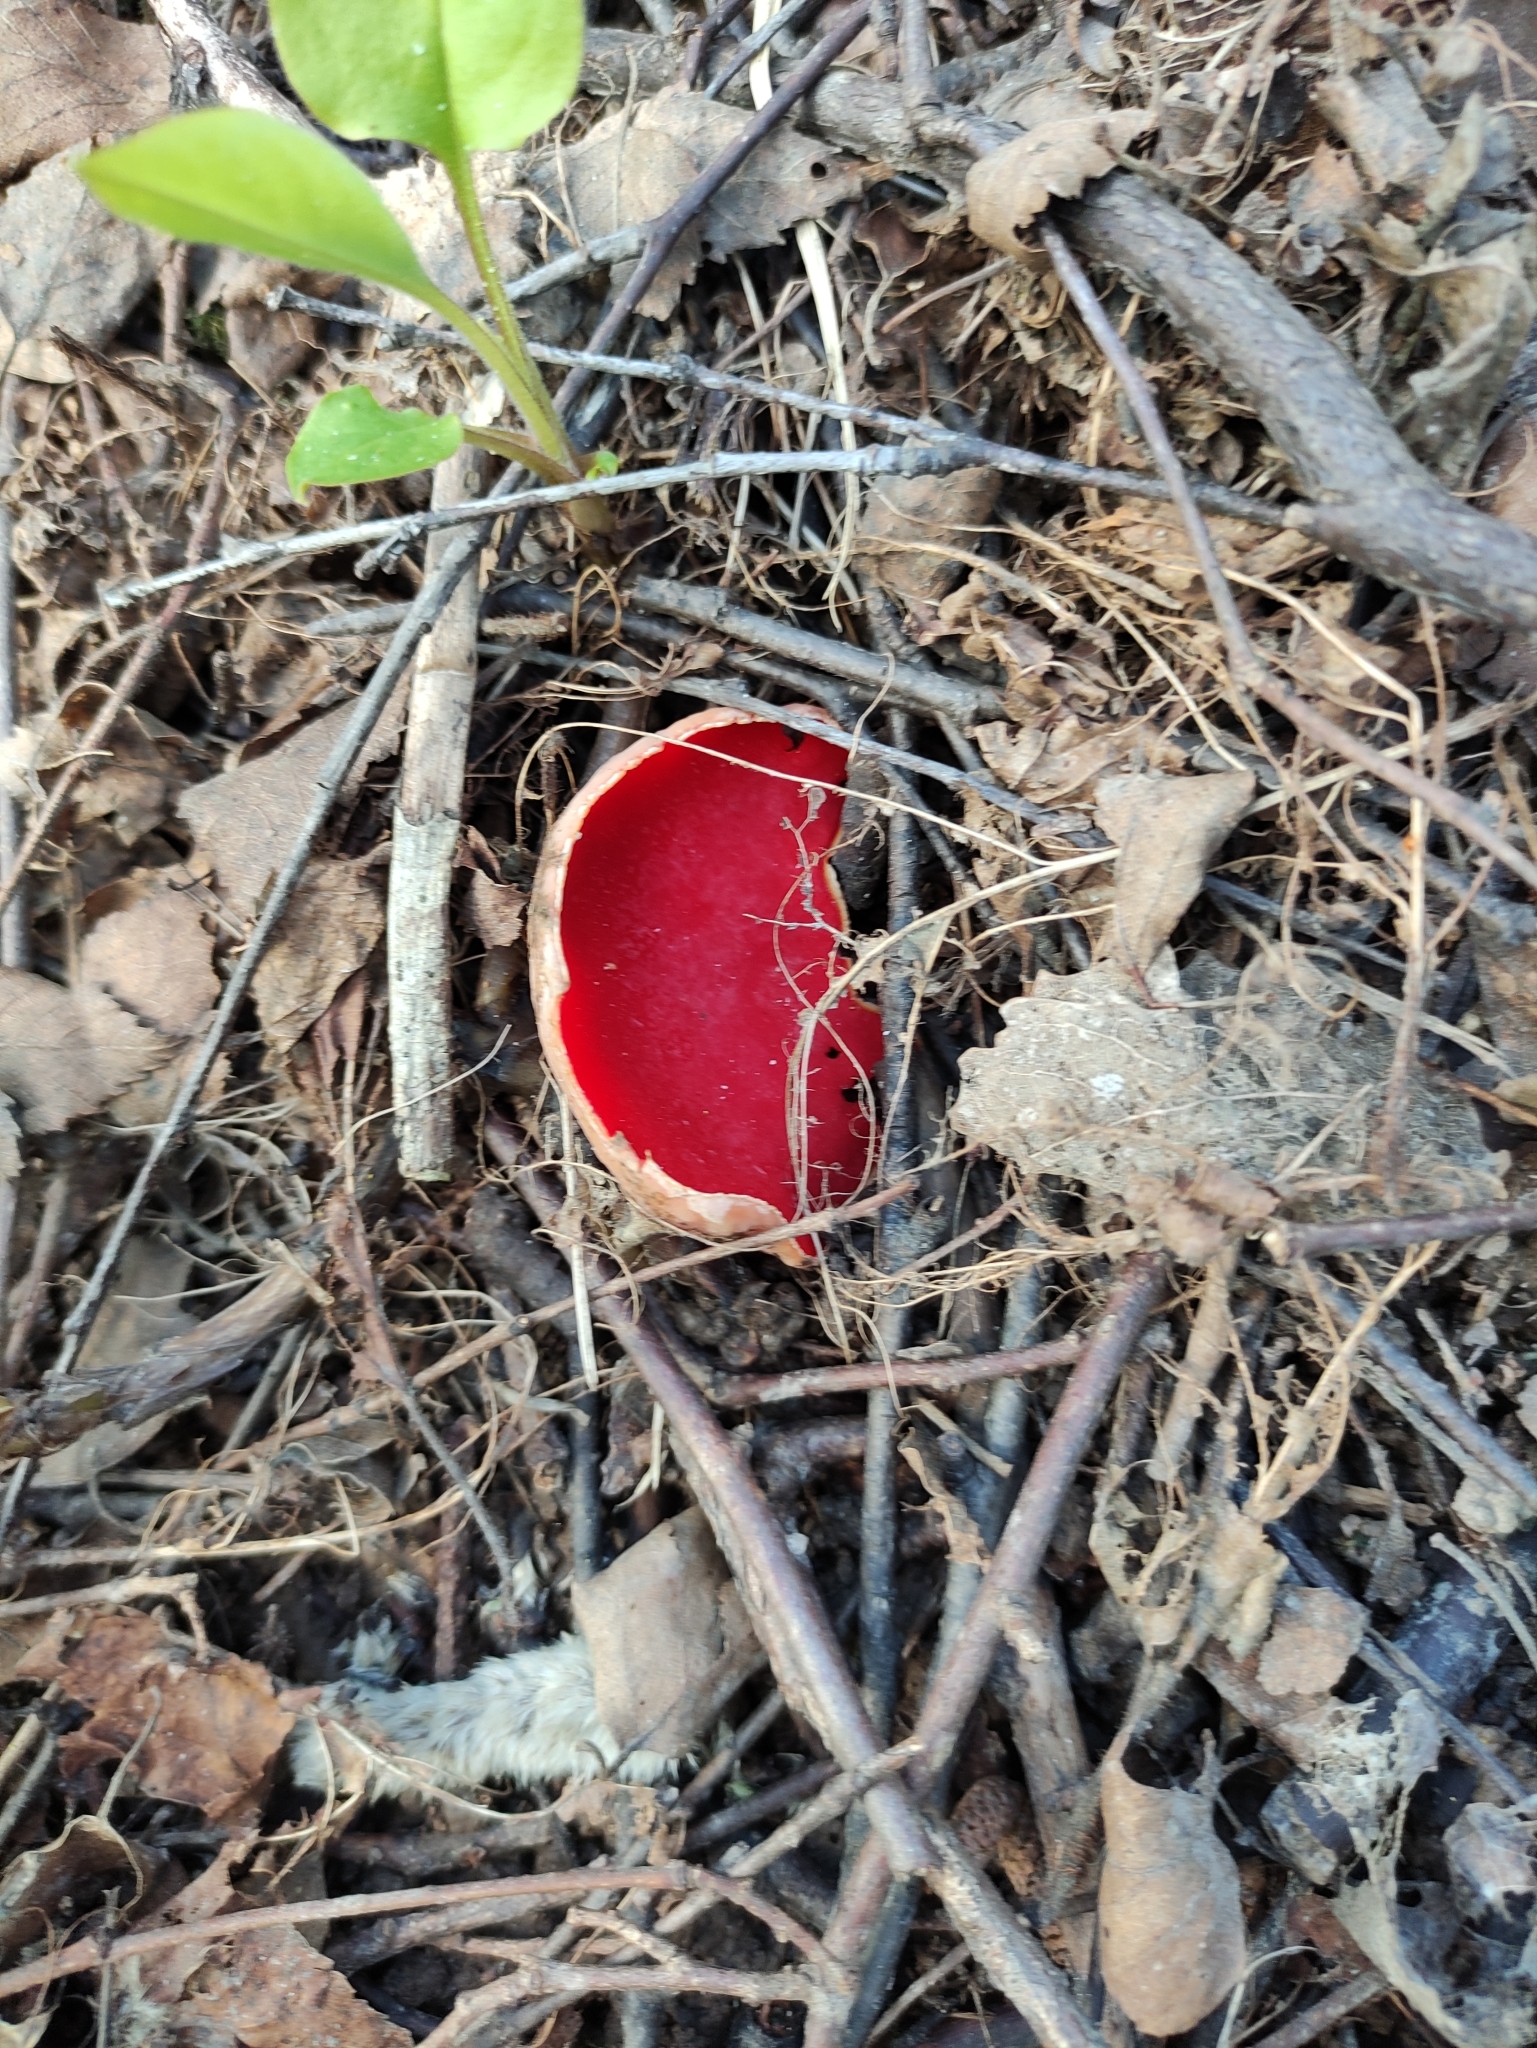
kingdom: Fungi
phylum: Ascomycota
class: Pezizomycetes
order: Pezizales
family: Sarcoscyphaceae
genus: Sarcoscypha
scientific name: Sarcoscypha austriaca
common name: Scarlet elfcup
